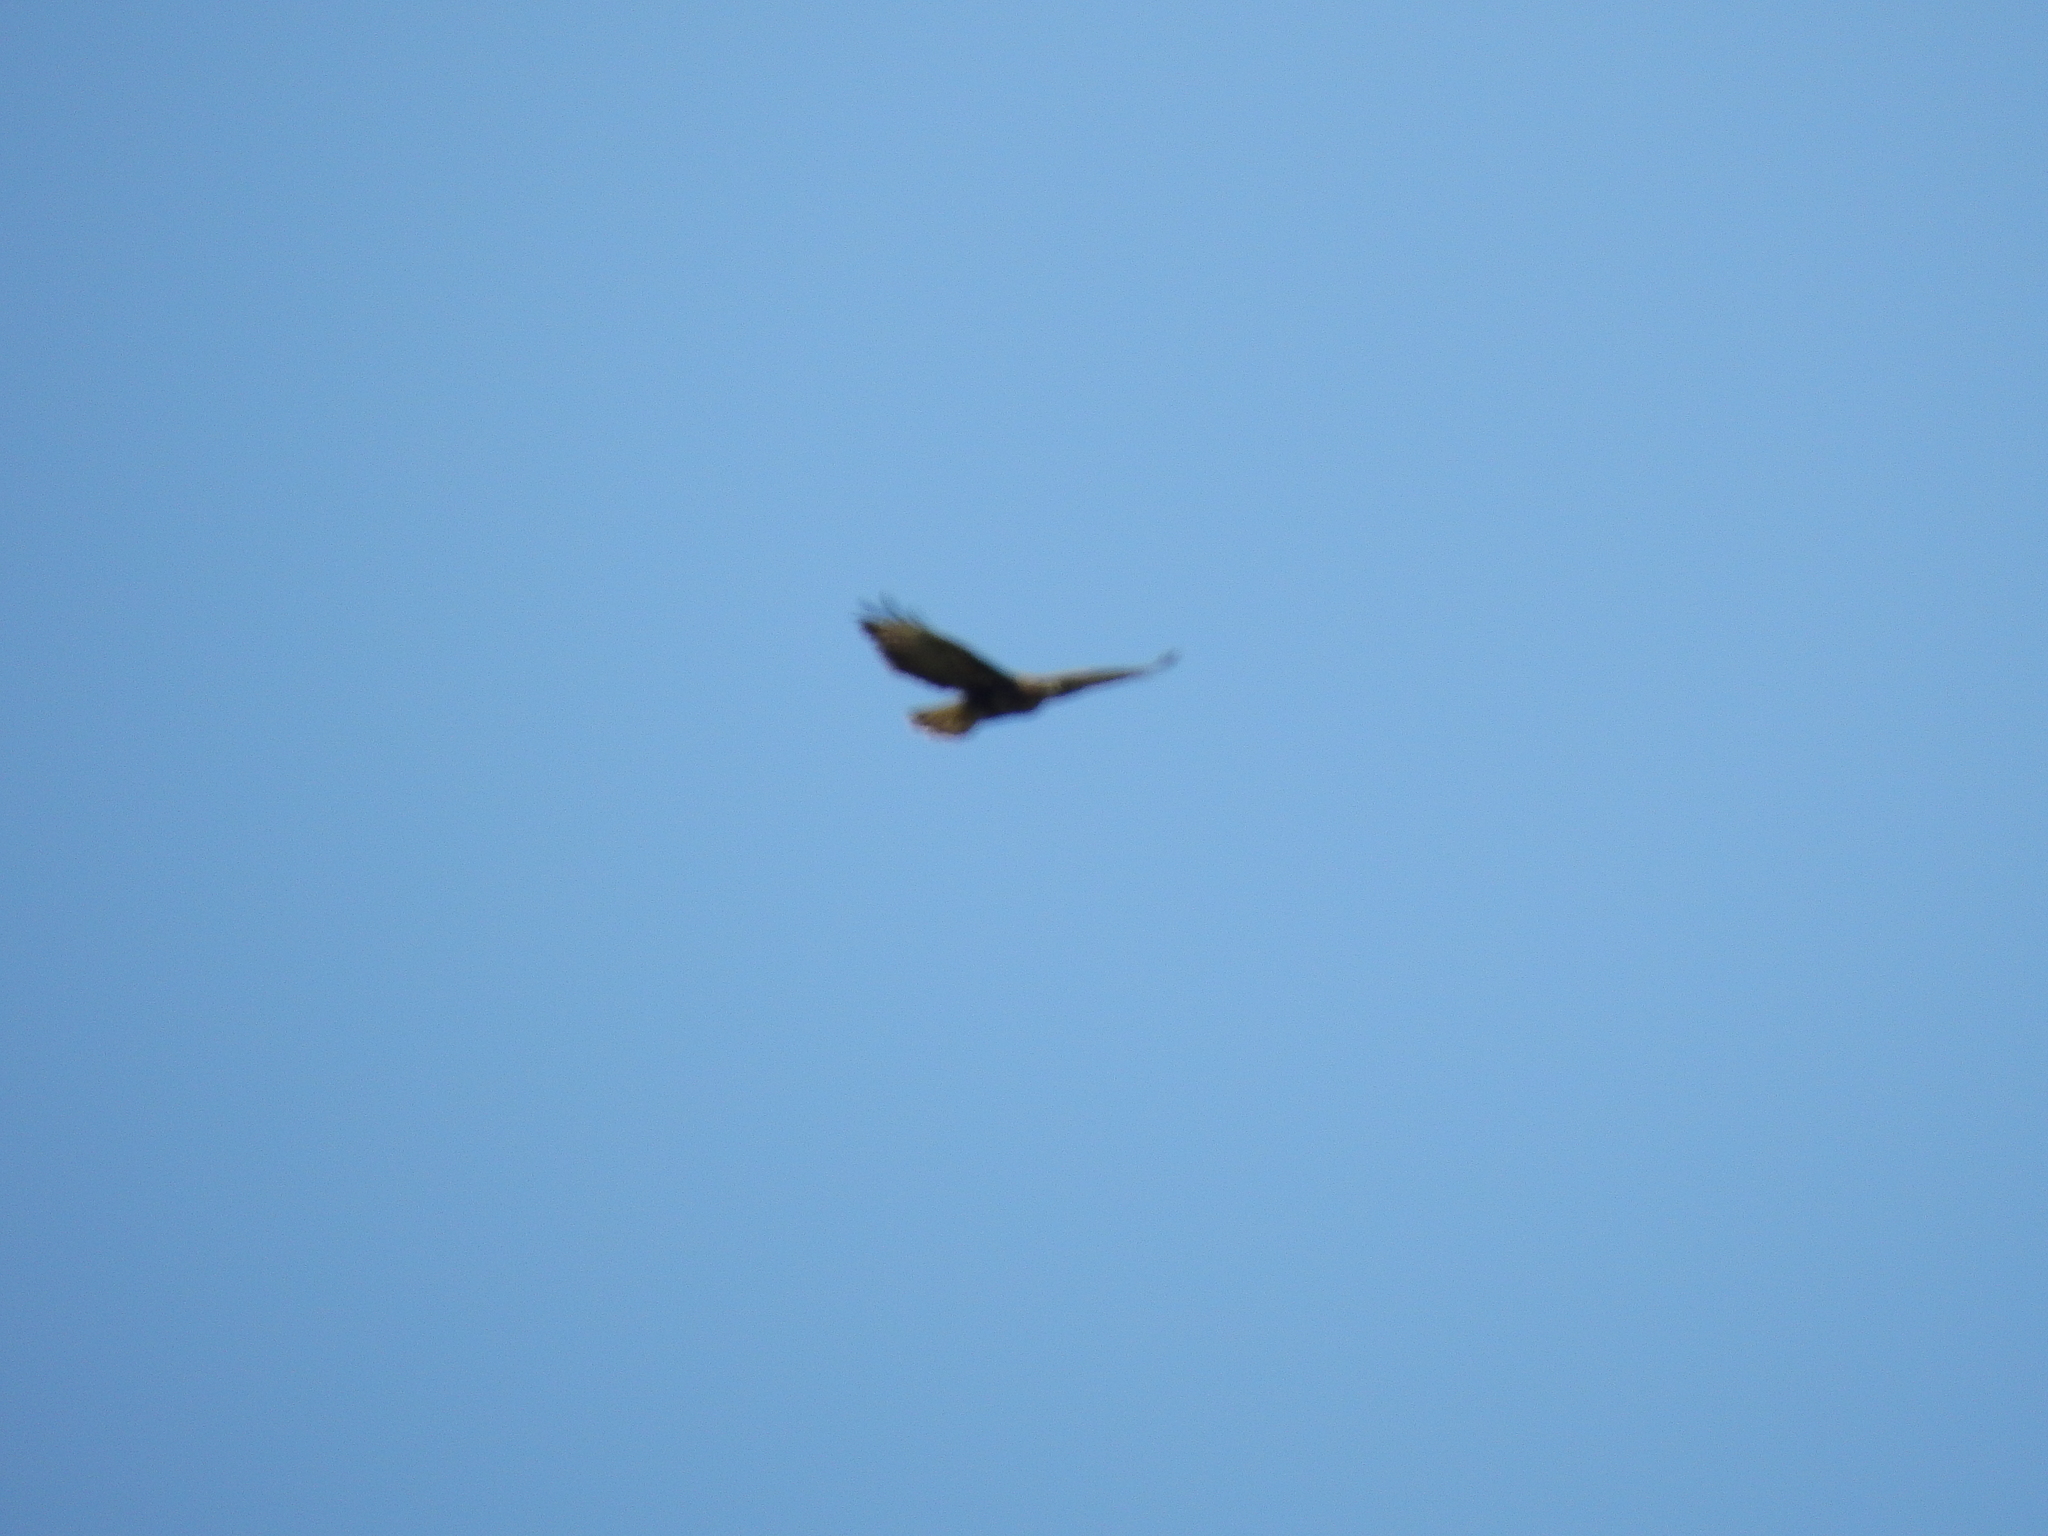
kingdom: Animalia
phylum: Chordata
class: Aves
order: Accipitriformes
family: Accipitridae
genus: Buteo
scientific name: Buteo buteo
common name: Common buzzard
